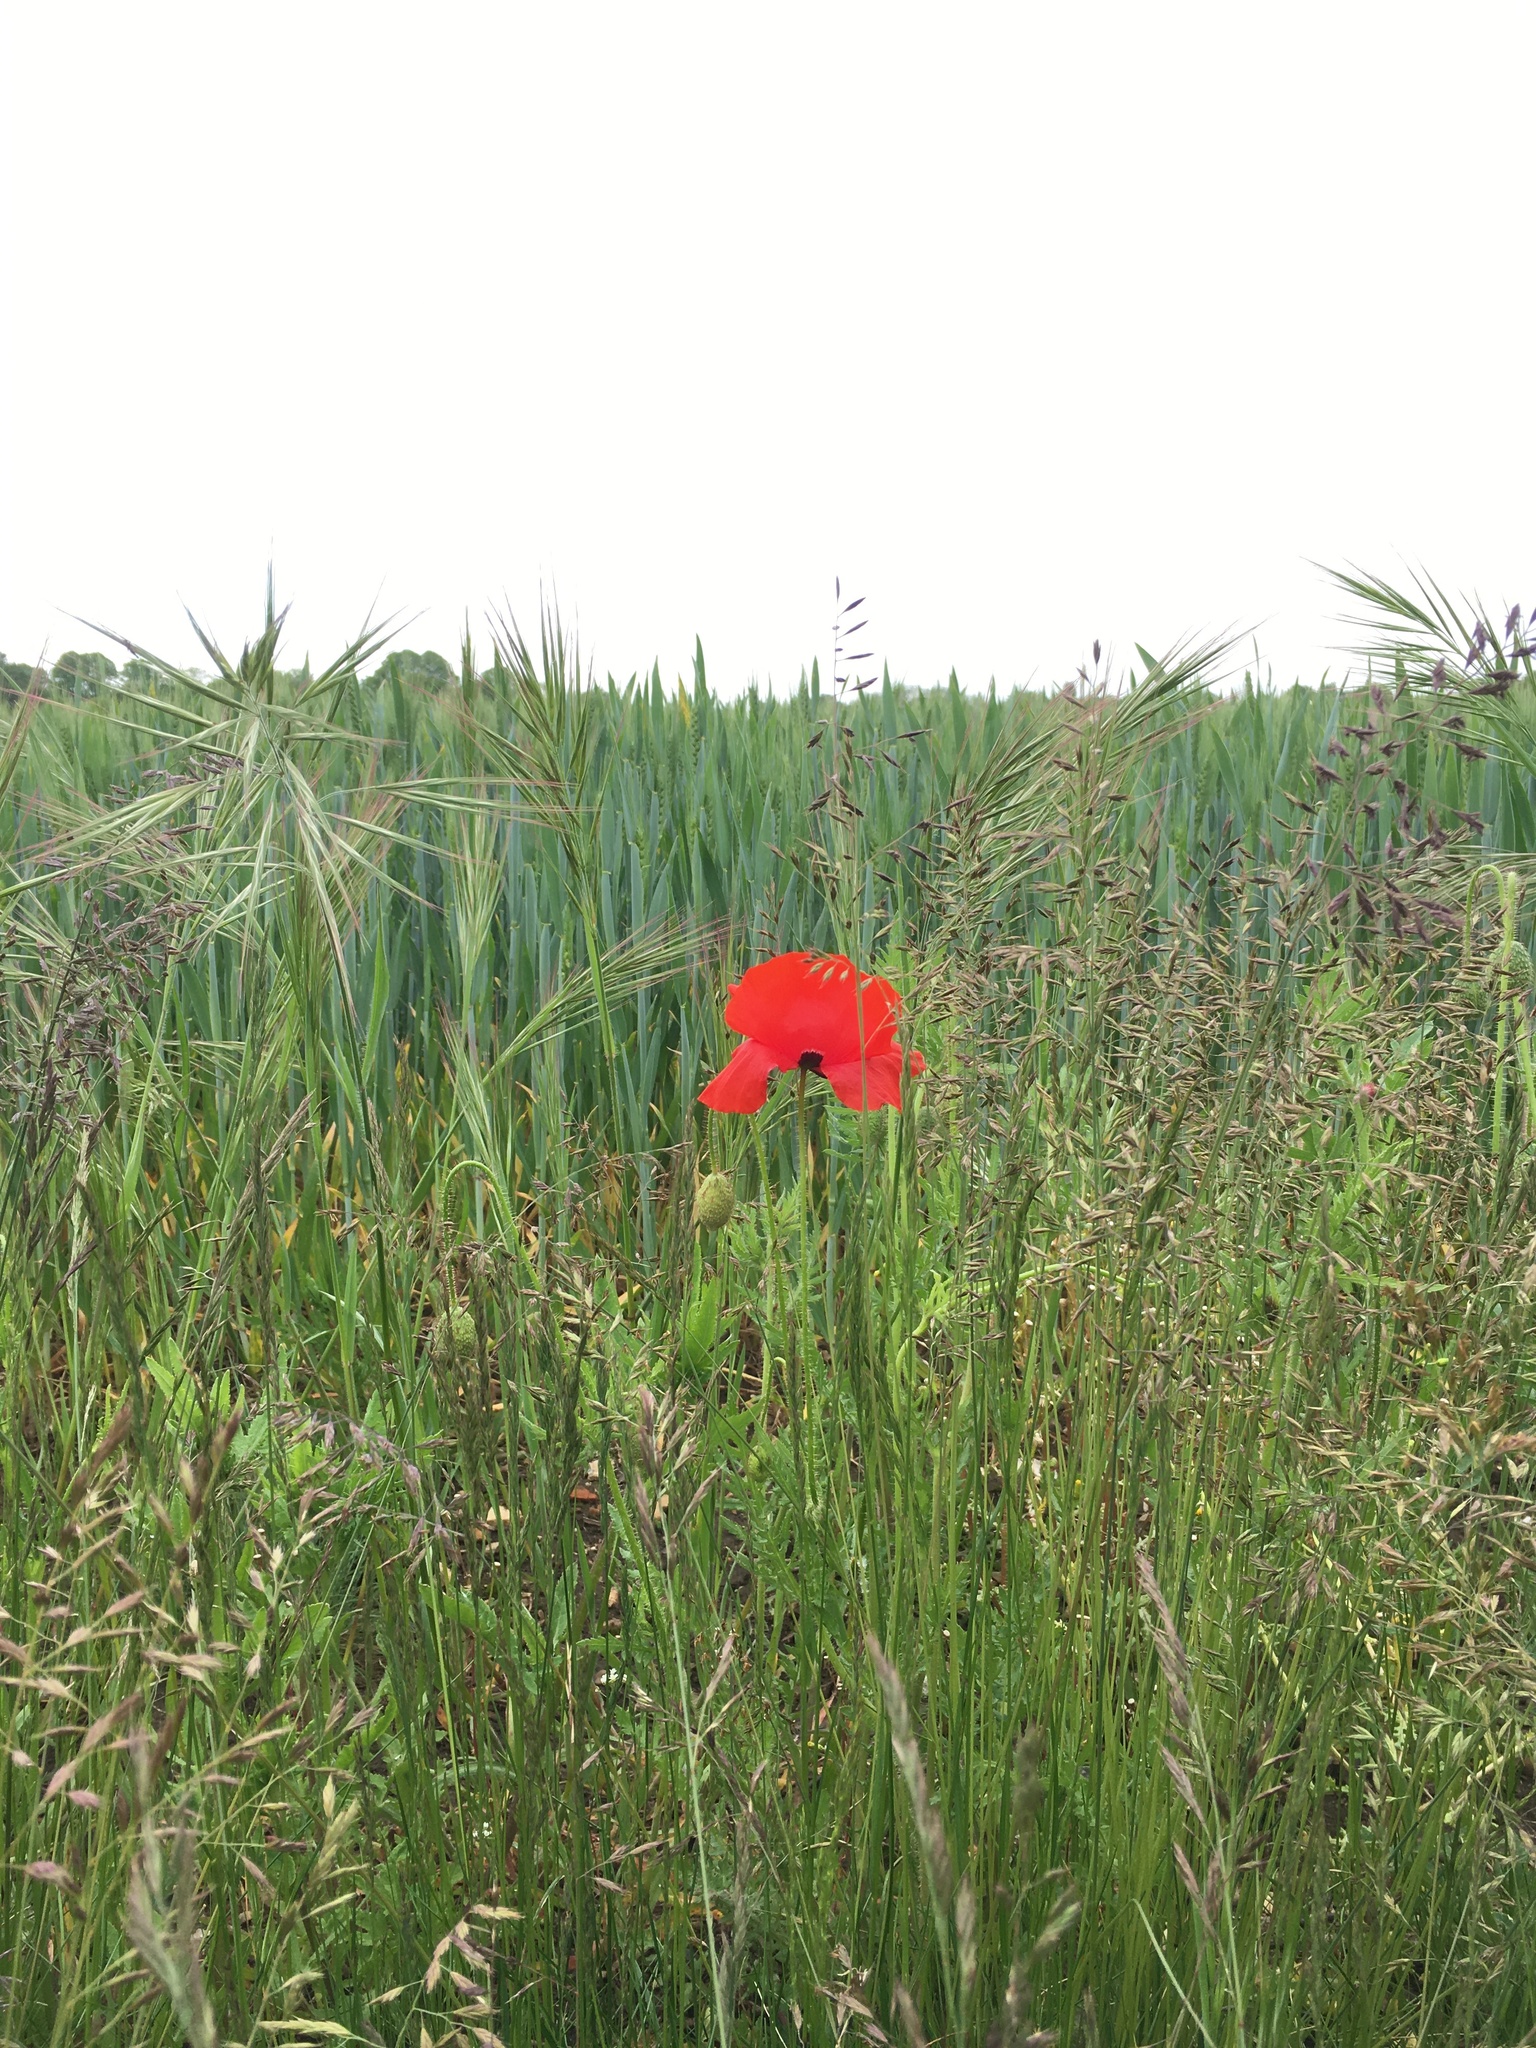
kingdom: Plantae
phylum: Tracheophyta
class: Magnoliopsida
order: Ranunculales
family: Papaveraceae
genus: Papaver
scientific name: Papaver rhoeas
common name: Corn poppy
